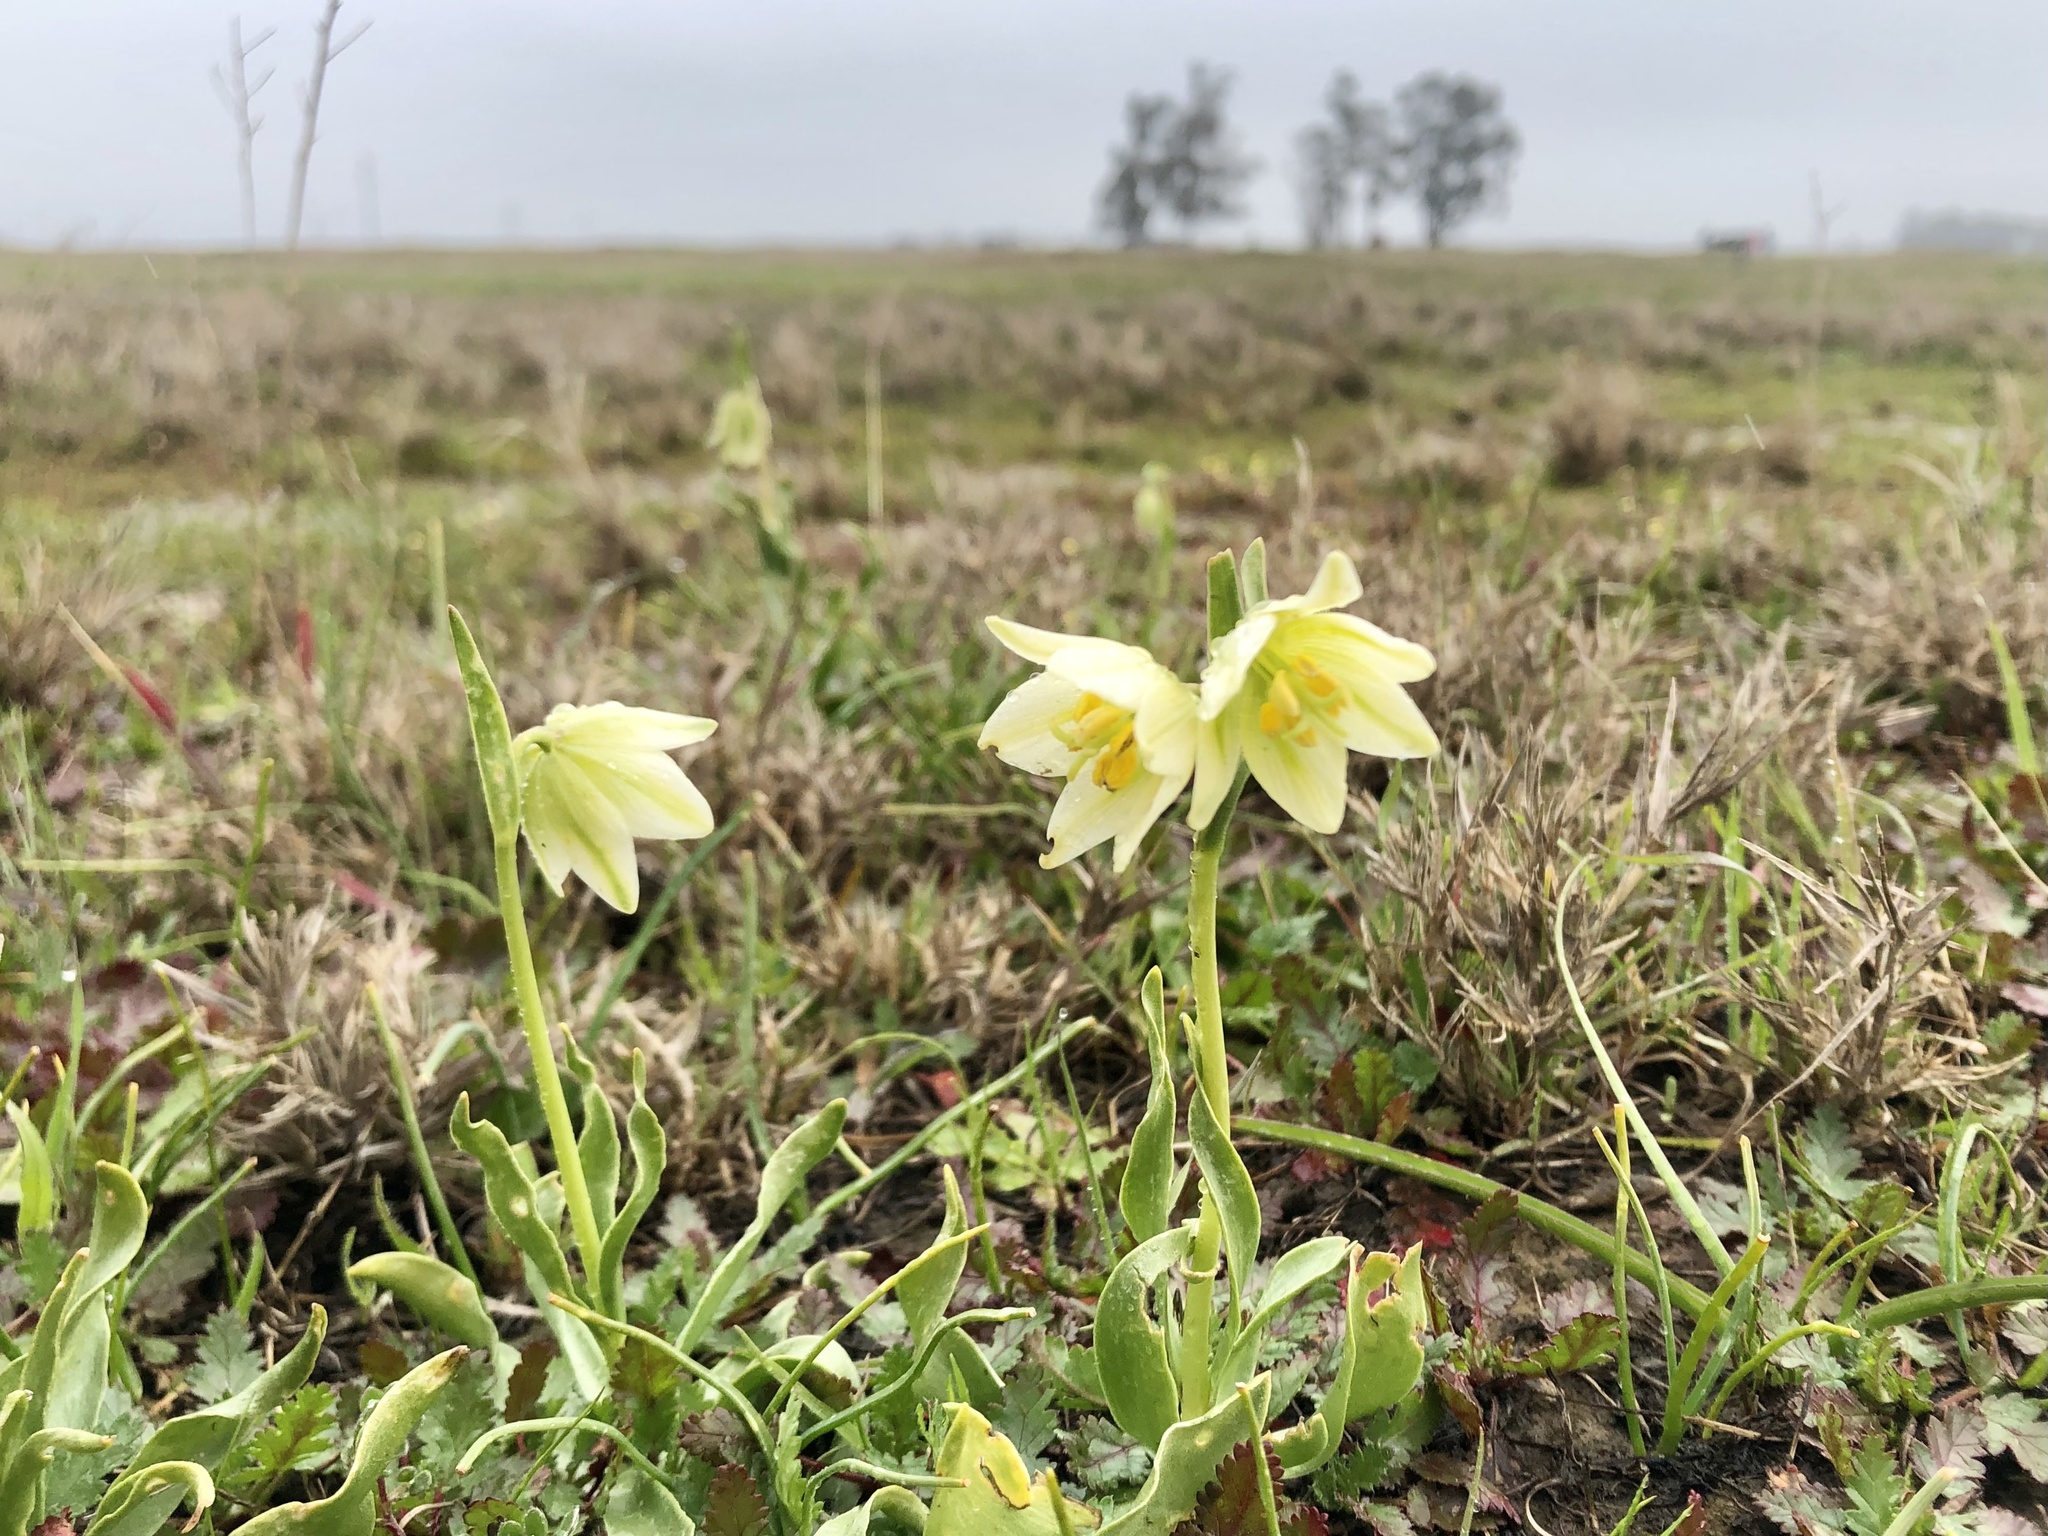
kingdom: Plantae
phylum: Tracheophyta
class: Liliopsida
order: Liliales
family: Liliaceae
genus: Fritillaria
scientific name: Fritillaria liliacea
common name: Fragrant fritillary
